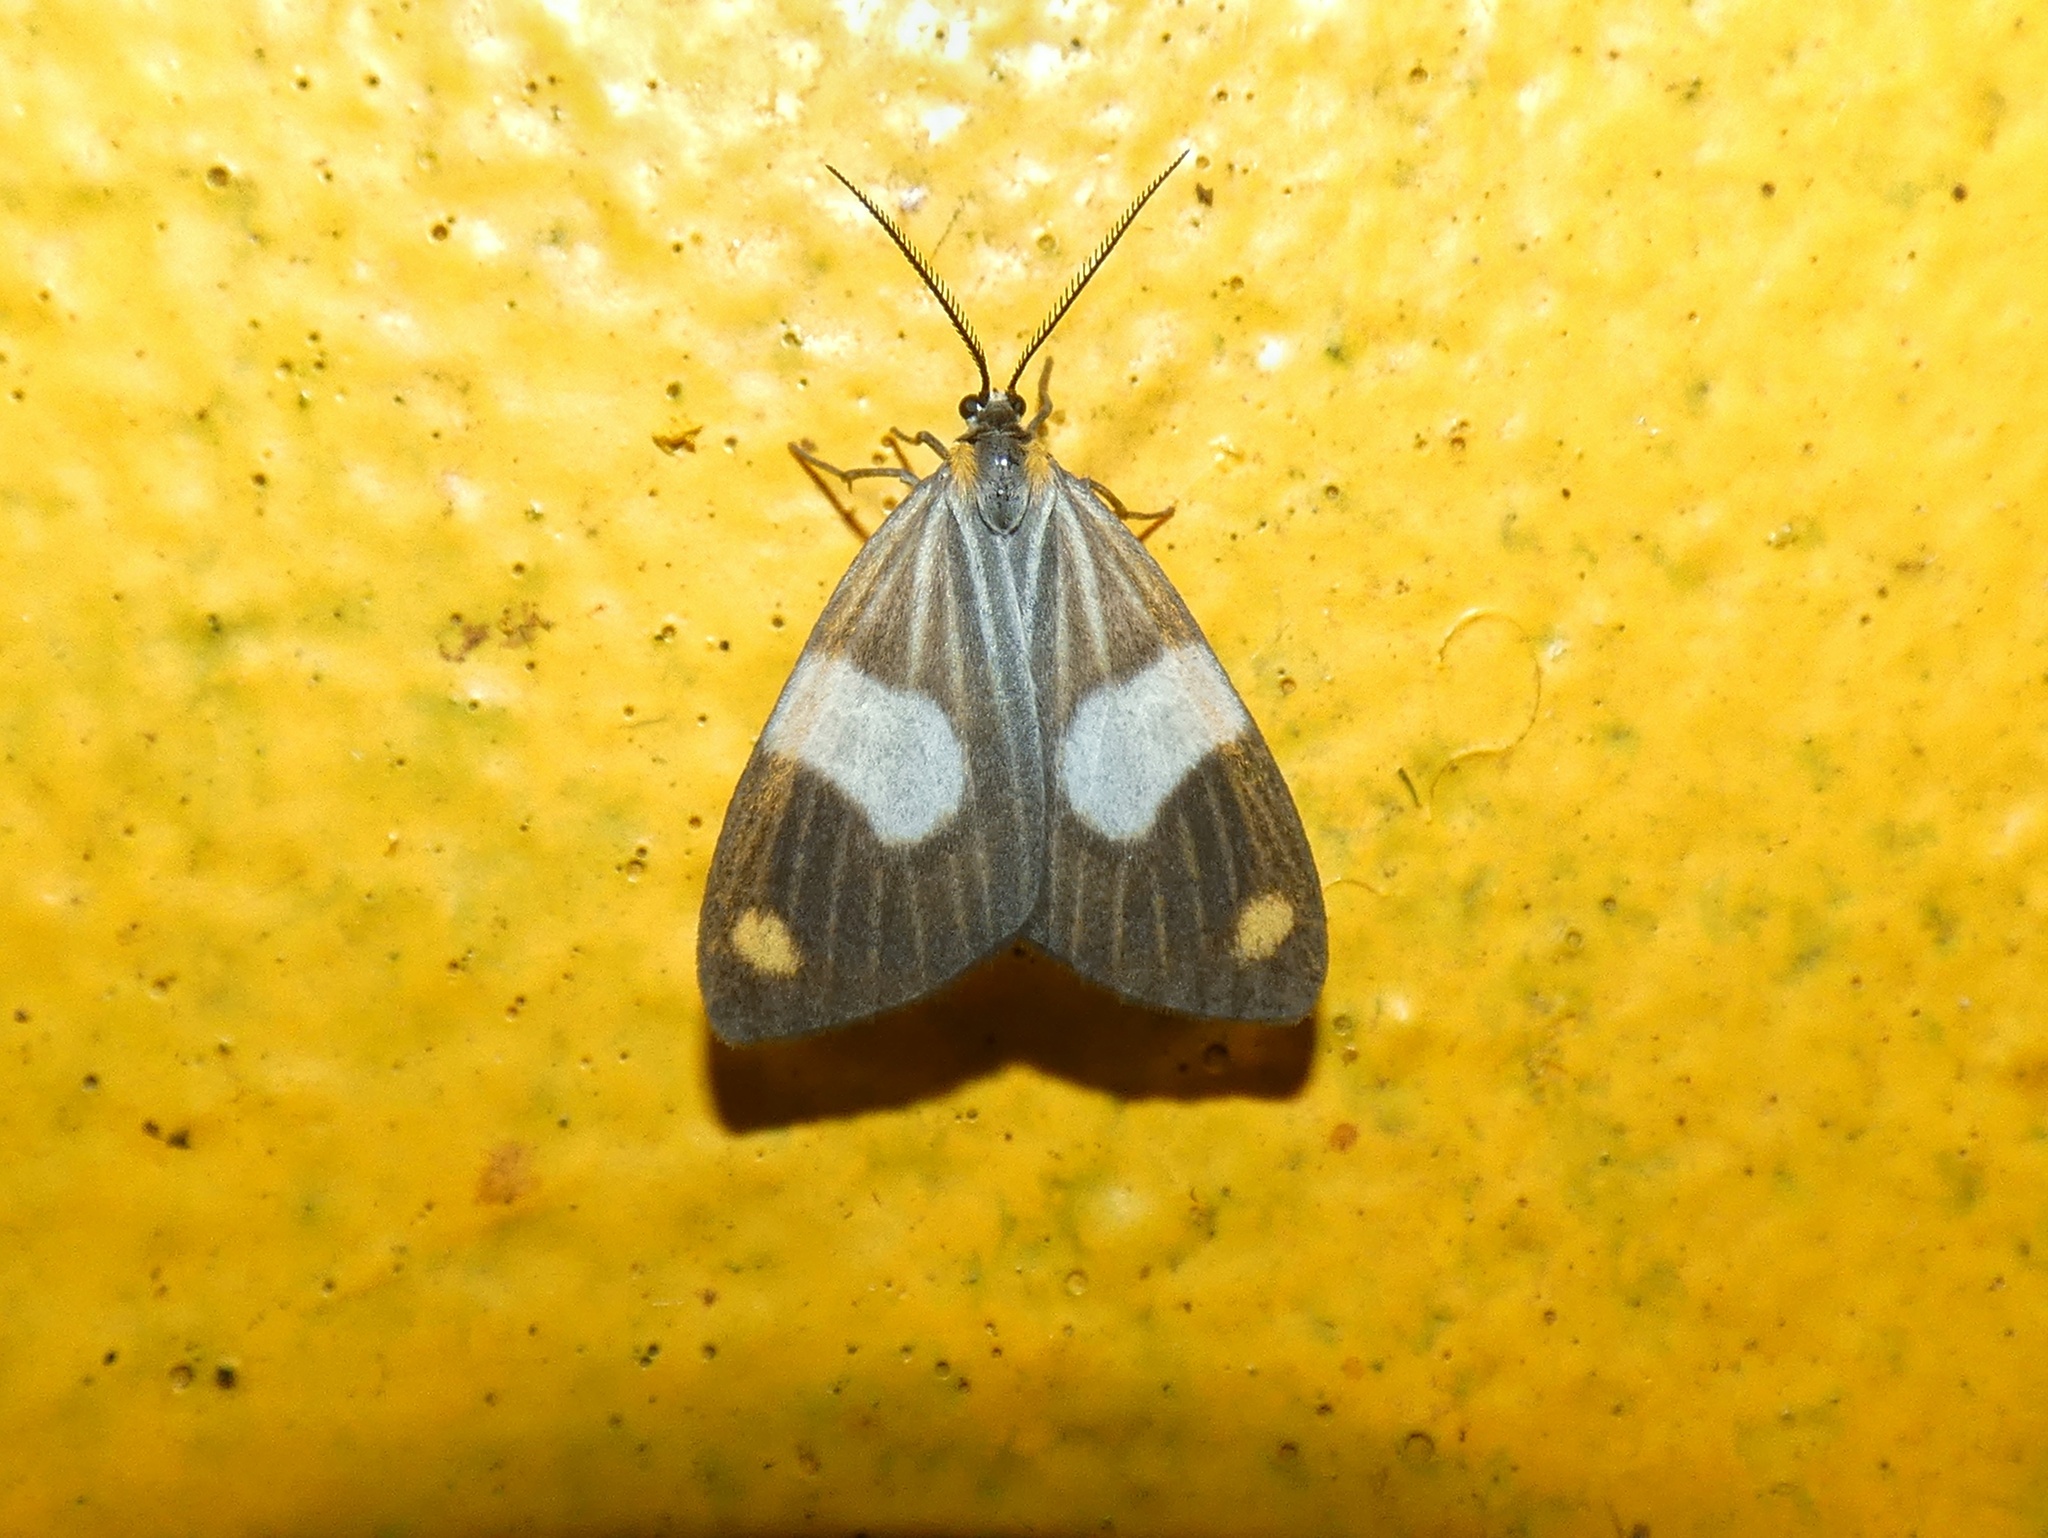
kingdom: Animalia
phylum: Arthropoda
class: Insecta
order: Lepidoptera
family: Notodontidae
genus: Nebulosa
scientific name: Nebulosa erymas
